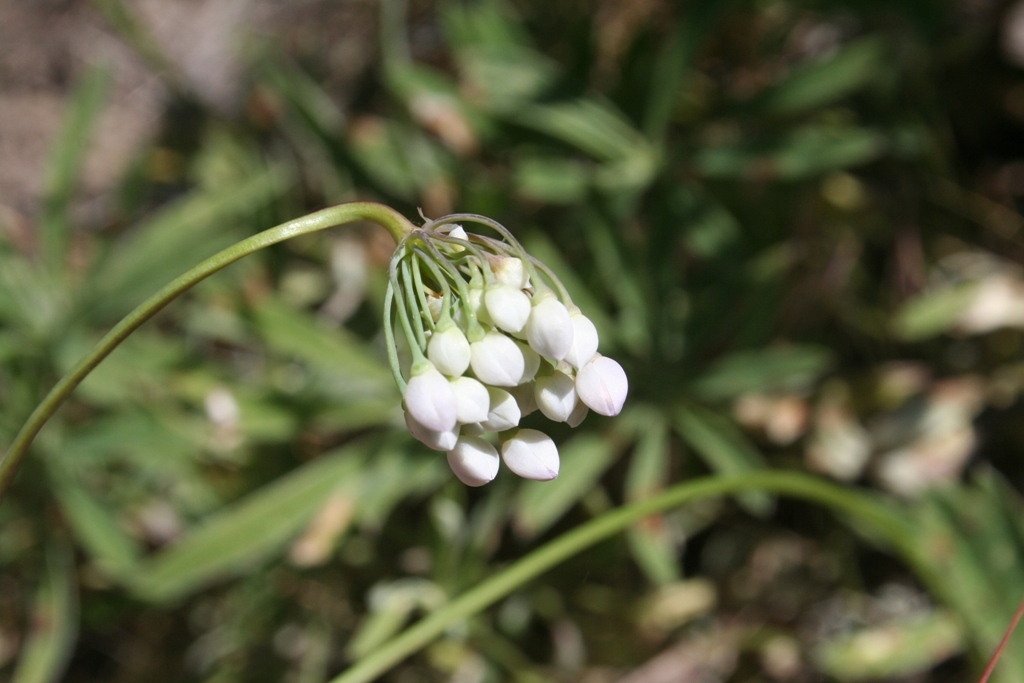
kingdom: Plantae
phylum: Tracheophyta
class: Liliopsida
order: Asparagales
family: Amaryllidaceae
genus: Allium
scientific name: Allium cernuum
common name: Nodding onion
